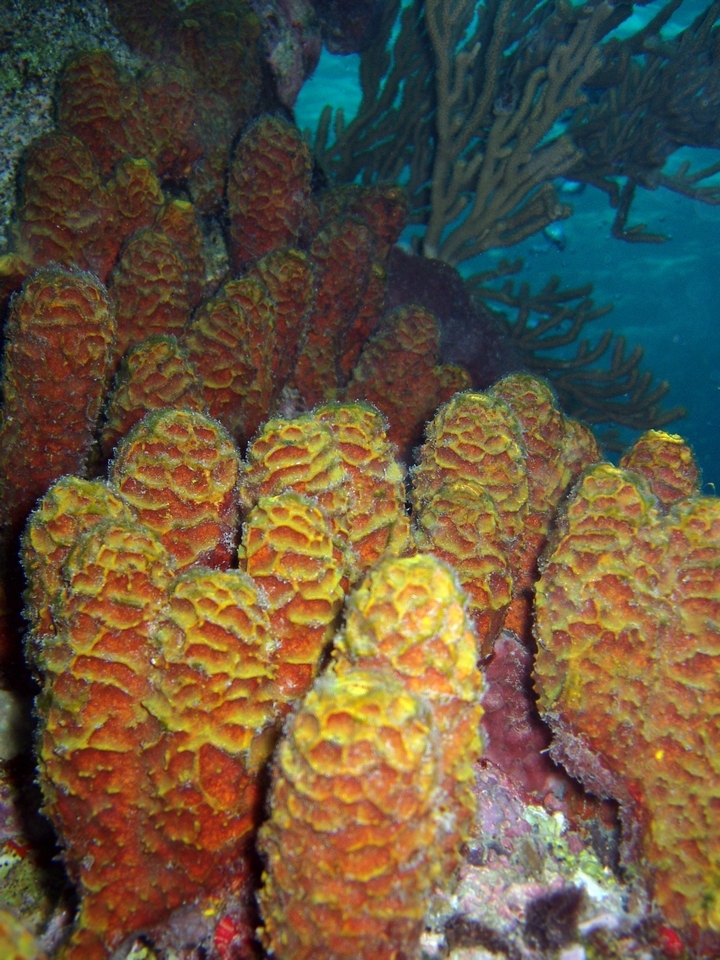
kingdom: Animalia
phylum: Porifera
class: Demospongiae
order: Verongiida
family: Aplysinidae
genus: Verongula
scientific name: Verongula rigida
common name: Pitted sponge
